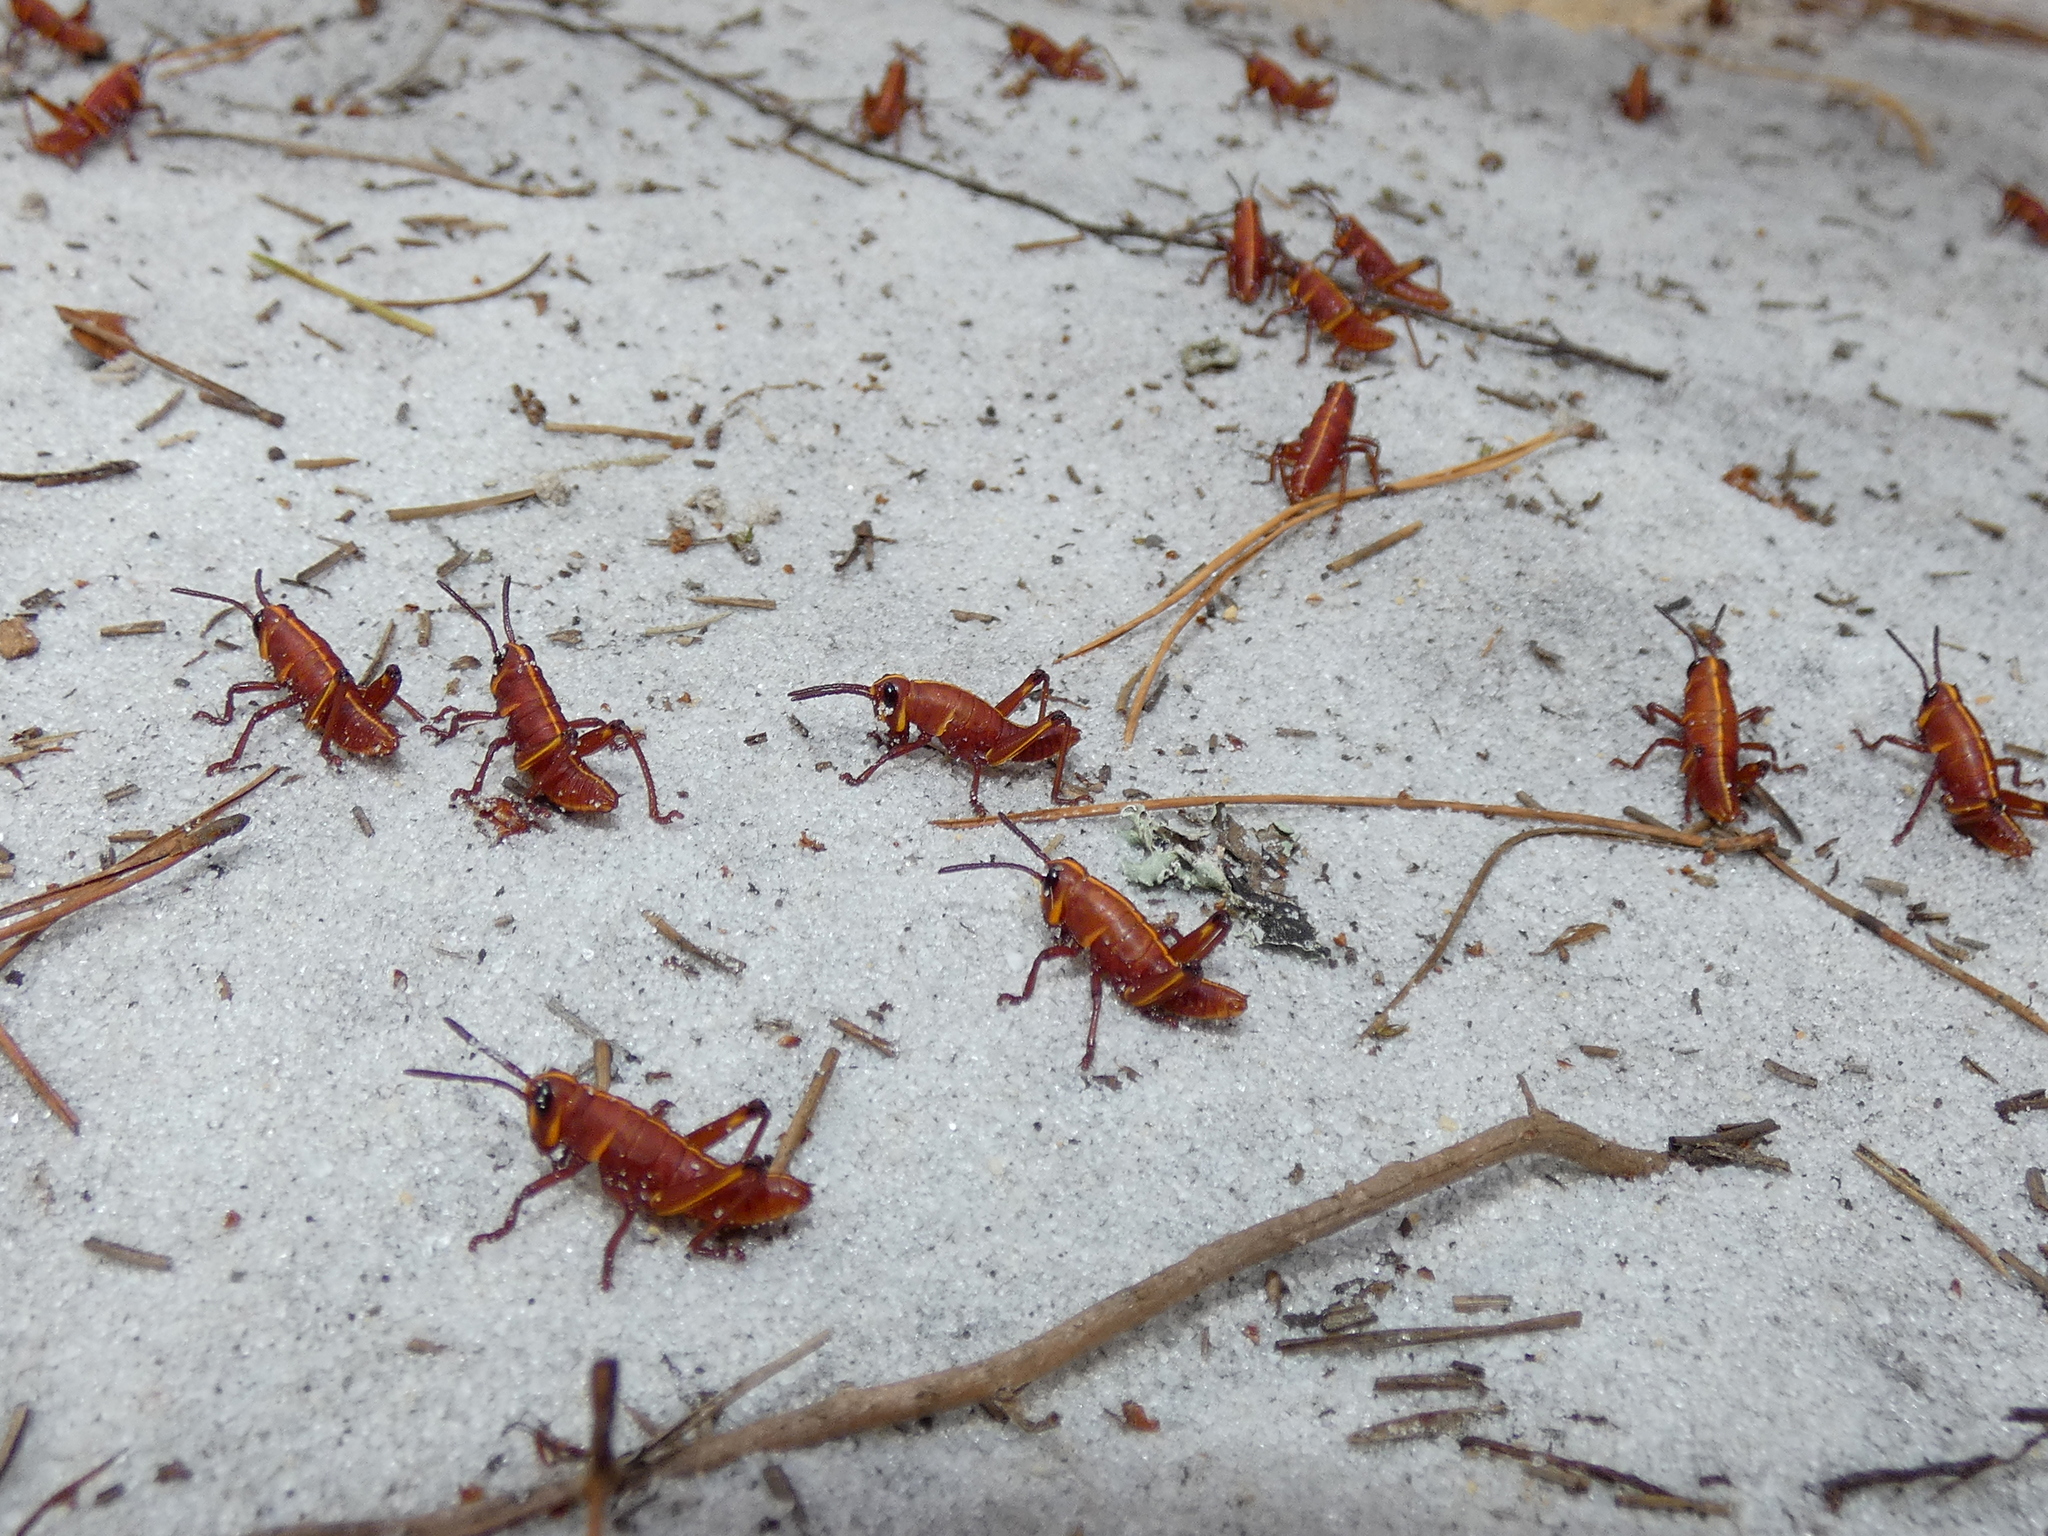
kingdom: Animalia
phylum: Arthropoda
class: Insecta
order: Orthoptera
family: Romaleidae
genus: Romalea
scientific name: Romalea microptera
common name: Eastern lubber grasshopper
